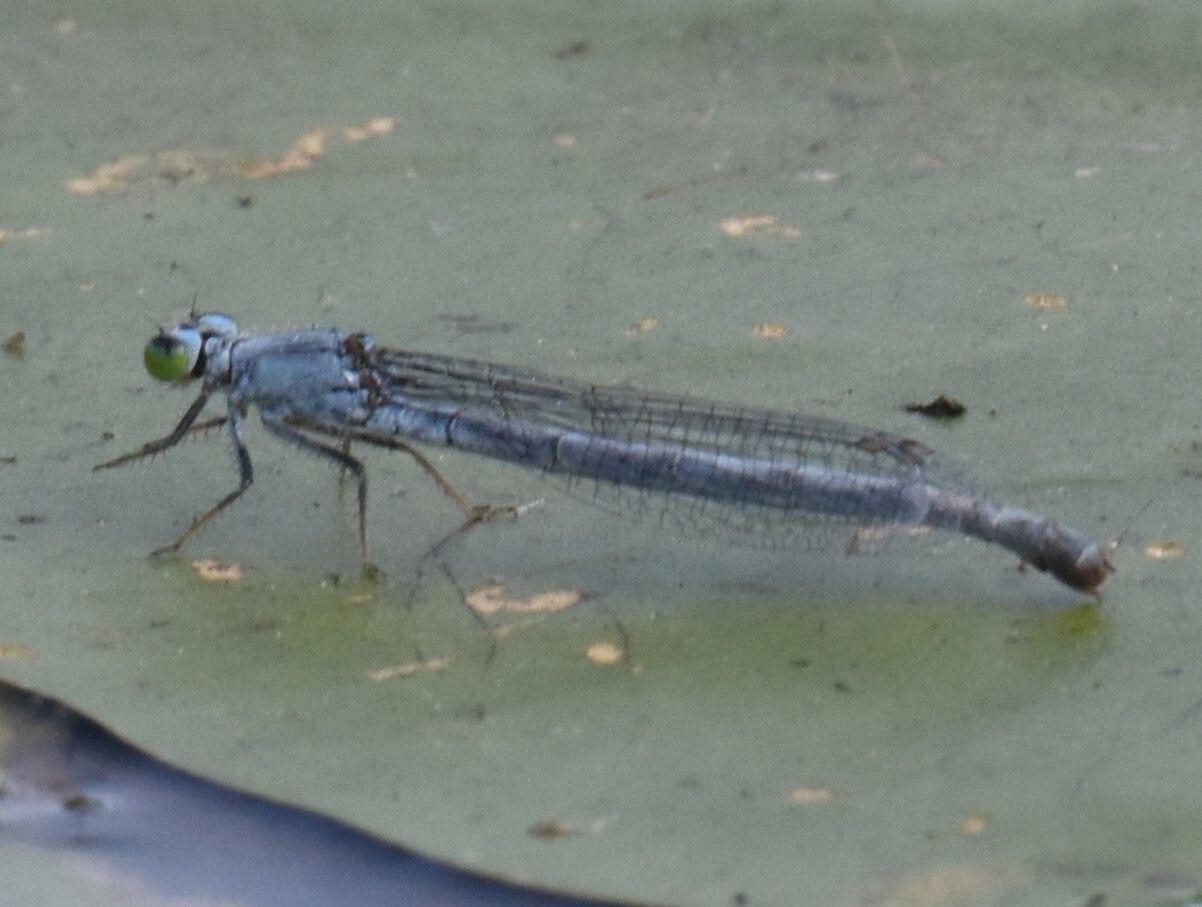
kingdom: Animalia
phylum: Arthropoda
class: Insecta
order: Odonata
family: Coenagrionidae
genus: Ischnura
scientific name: Ischnura kellicotti
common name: Lilypad forktail
